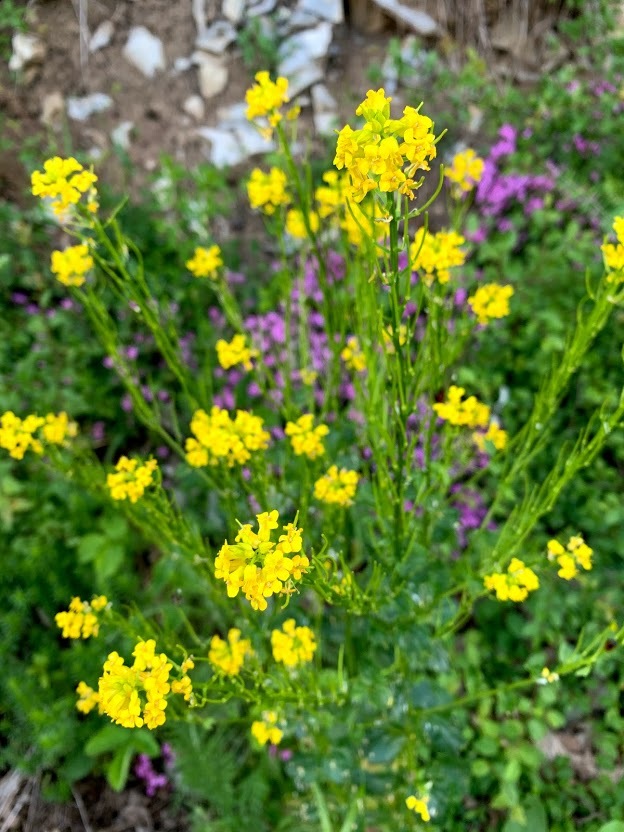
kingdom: Plantae
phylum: Tracheophyta
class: Magnoliopsida
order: Brassicales
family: Brassicaceae
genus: Barbarea
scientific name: Barbarea vulgaris
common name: Cressy-greens
